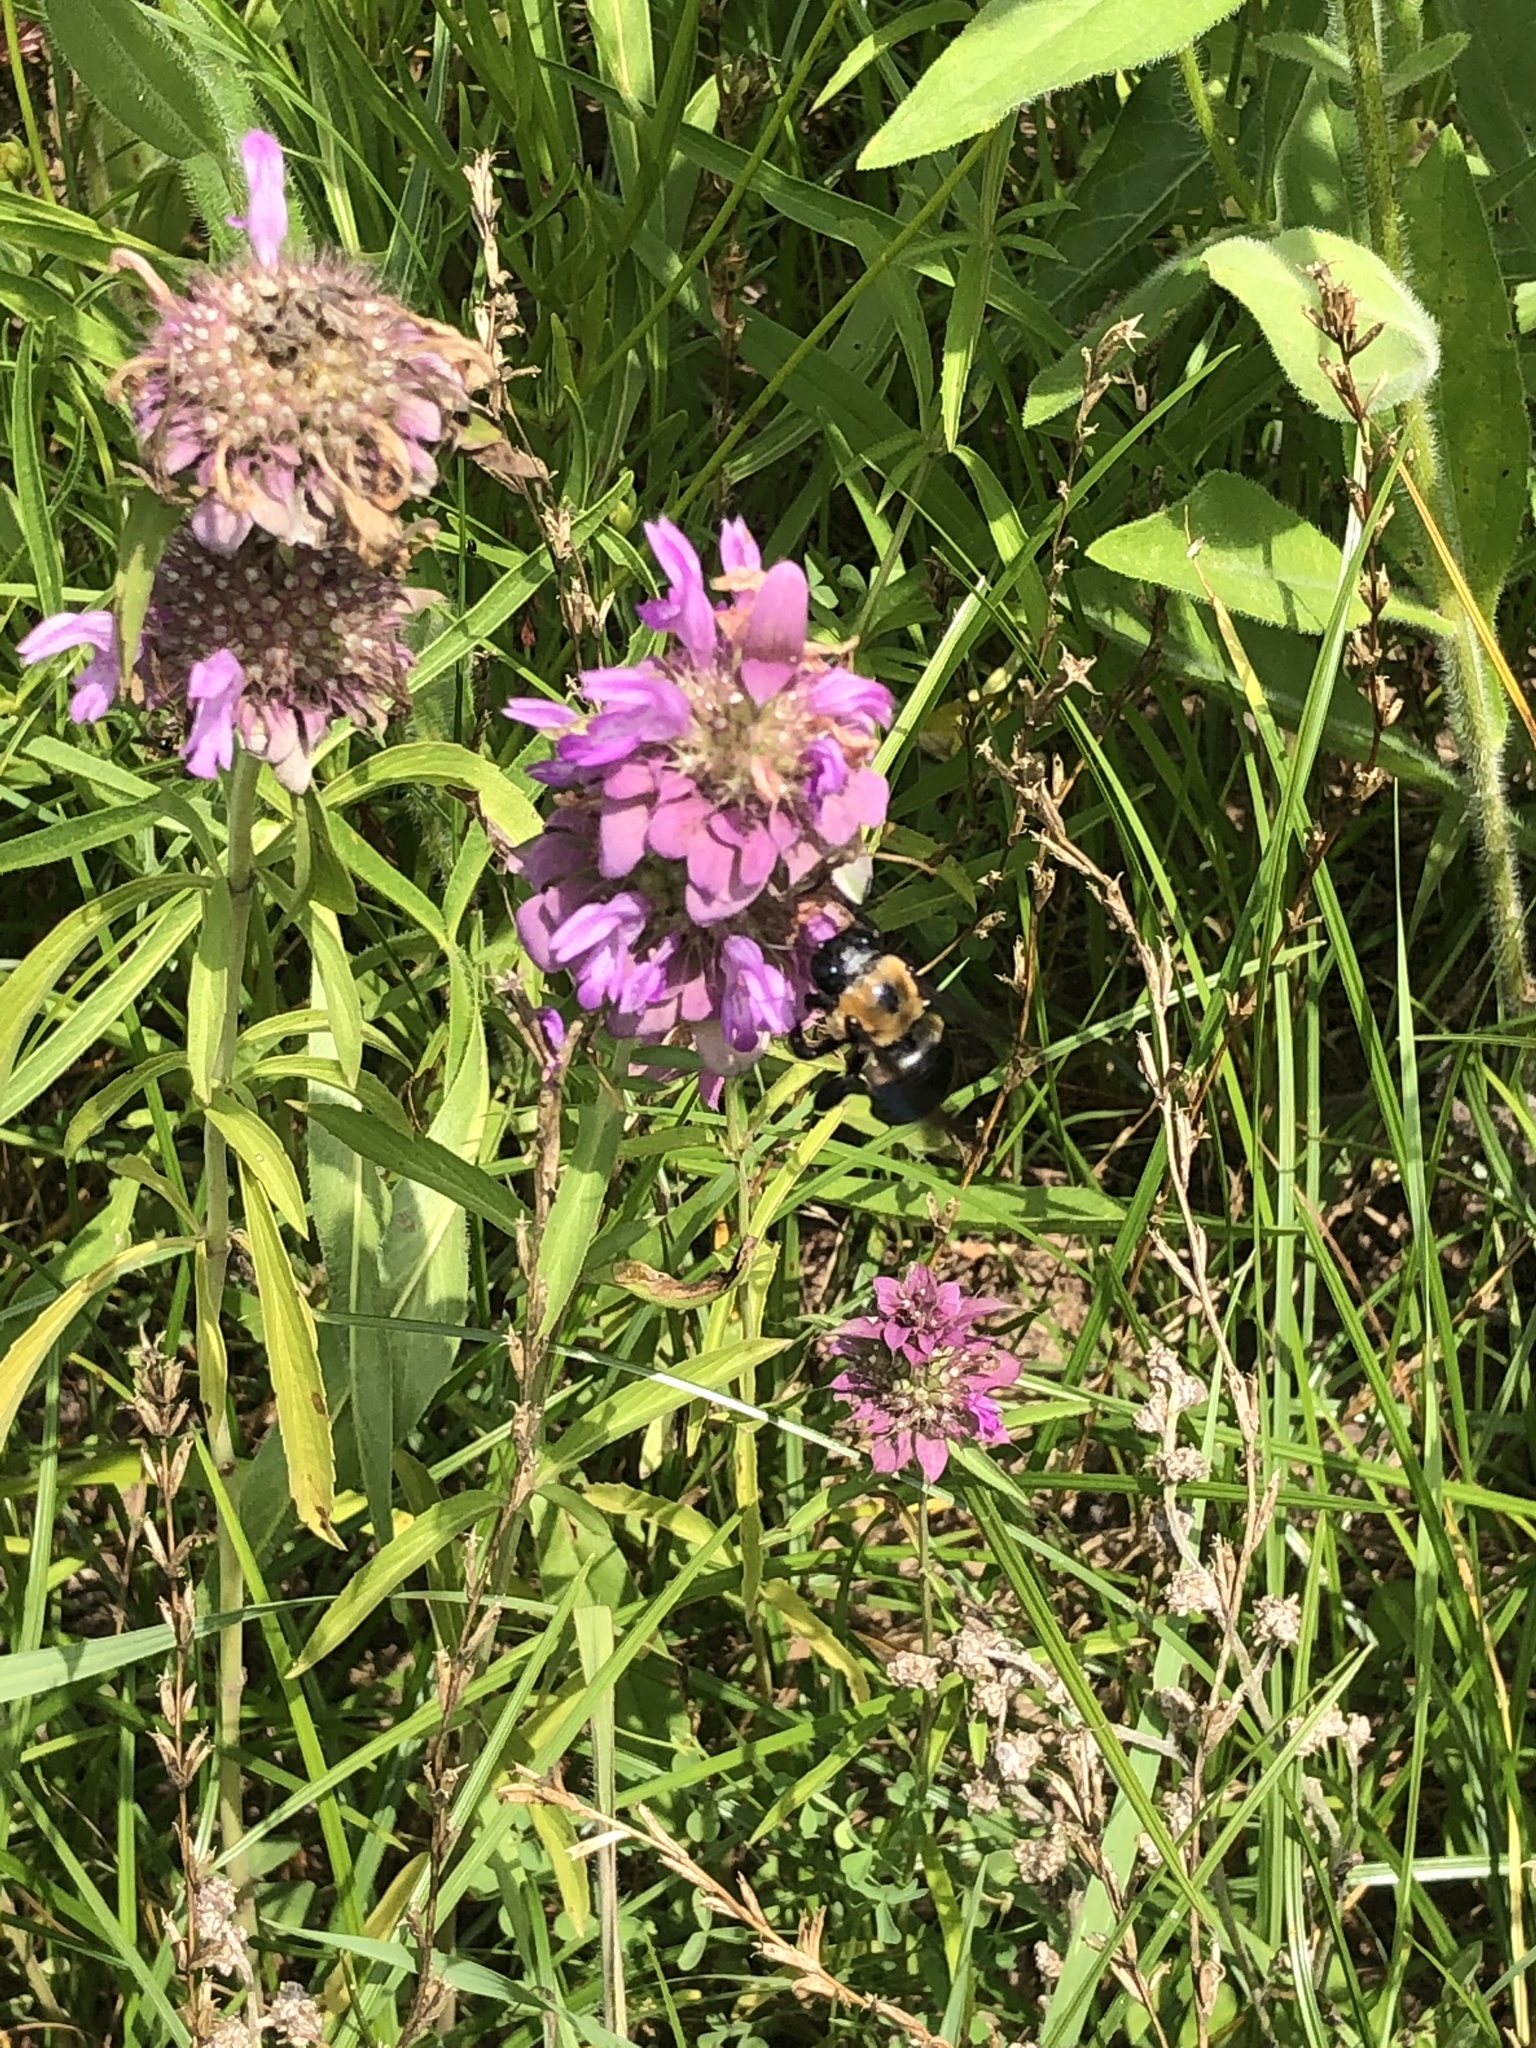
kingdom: Animalia
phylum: Arthropoda
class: Insecta
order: Hymenoptera
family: Apidae
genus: Xylocopa
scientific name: Xylocopa virginica
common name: Carpenter bee
